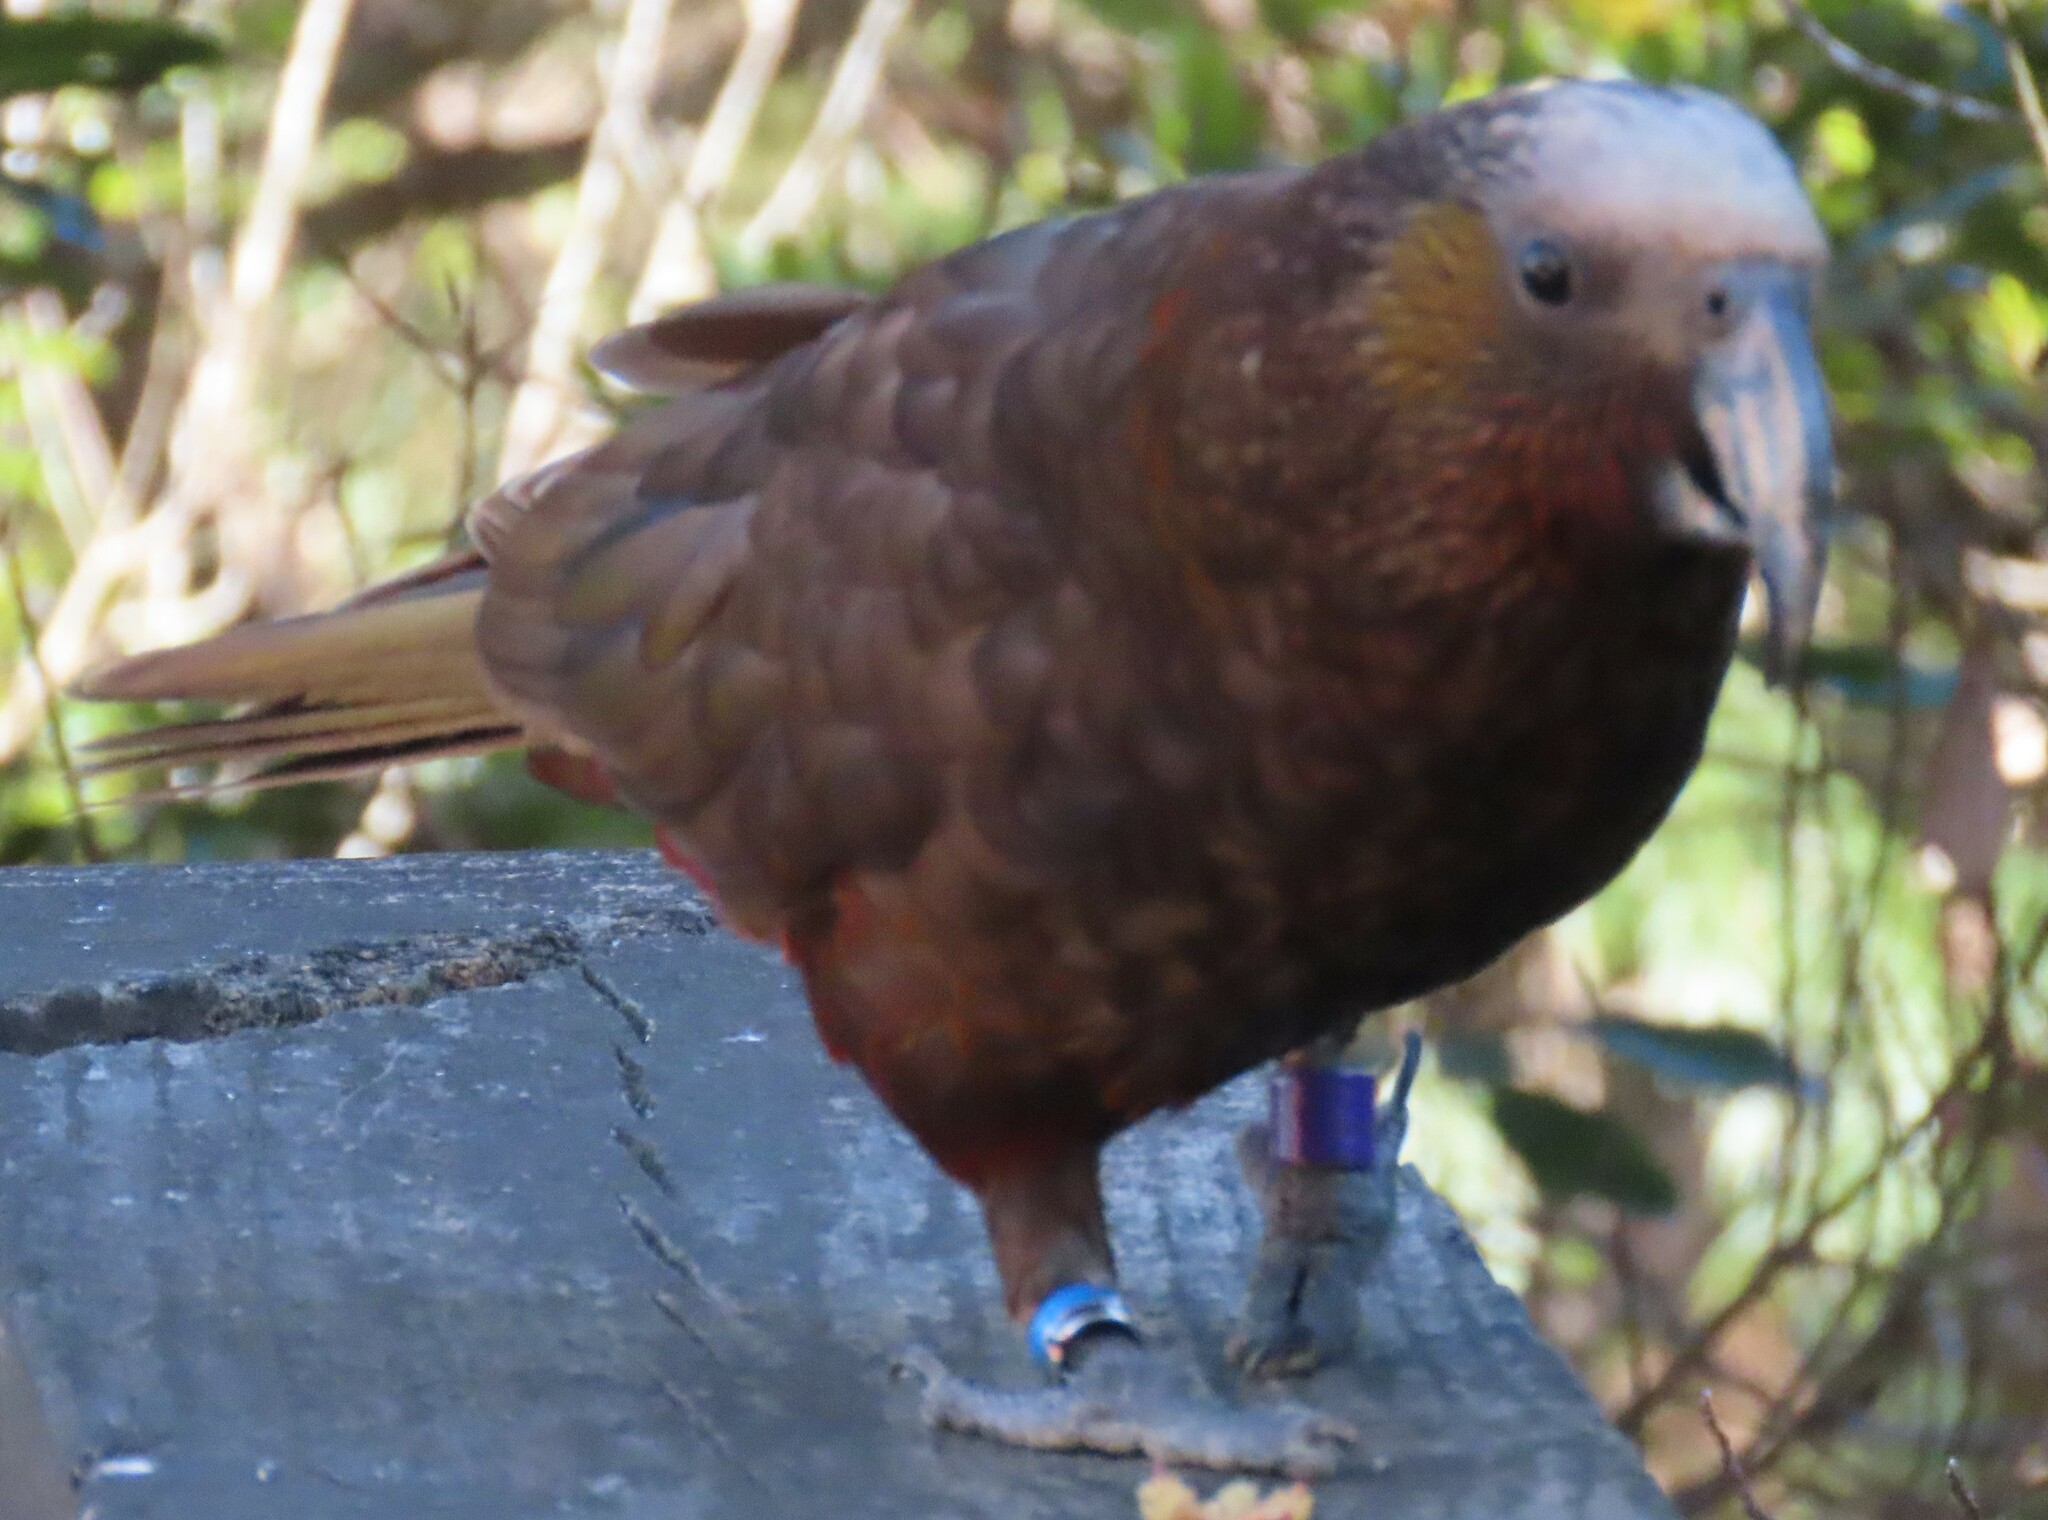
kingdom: Animalia
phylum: Chordata
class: Aves
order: Psittaciformes
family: Psittacidae
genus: Nestor
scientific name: Nestor meridionalis
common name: New zealand kaka
